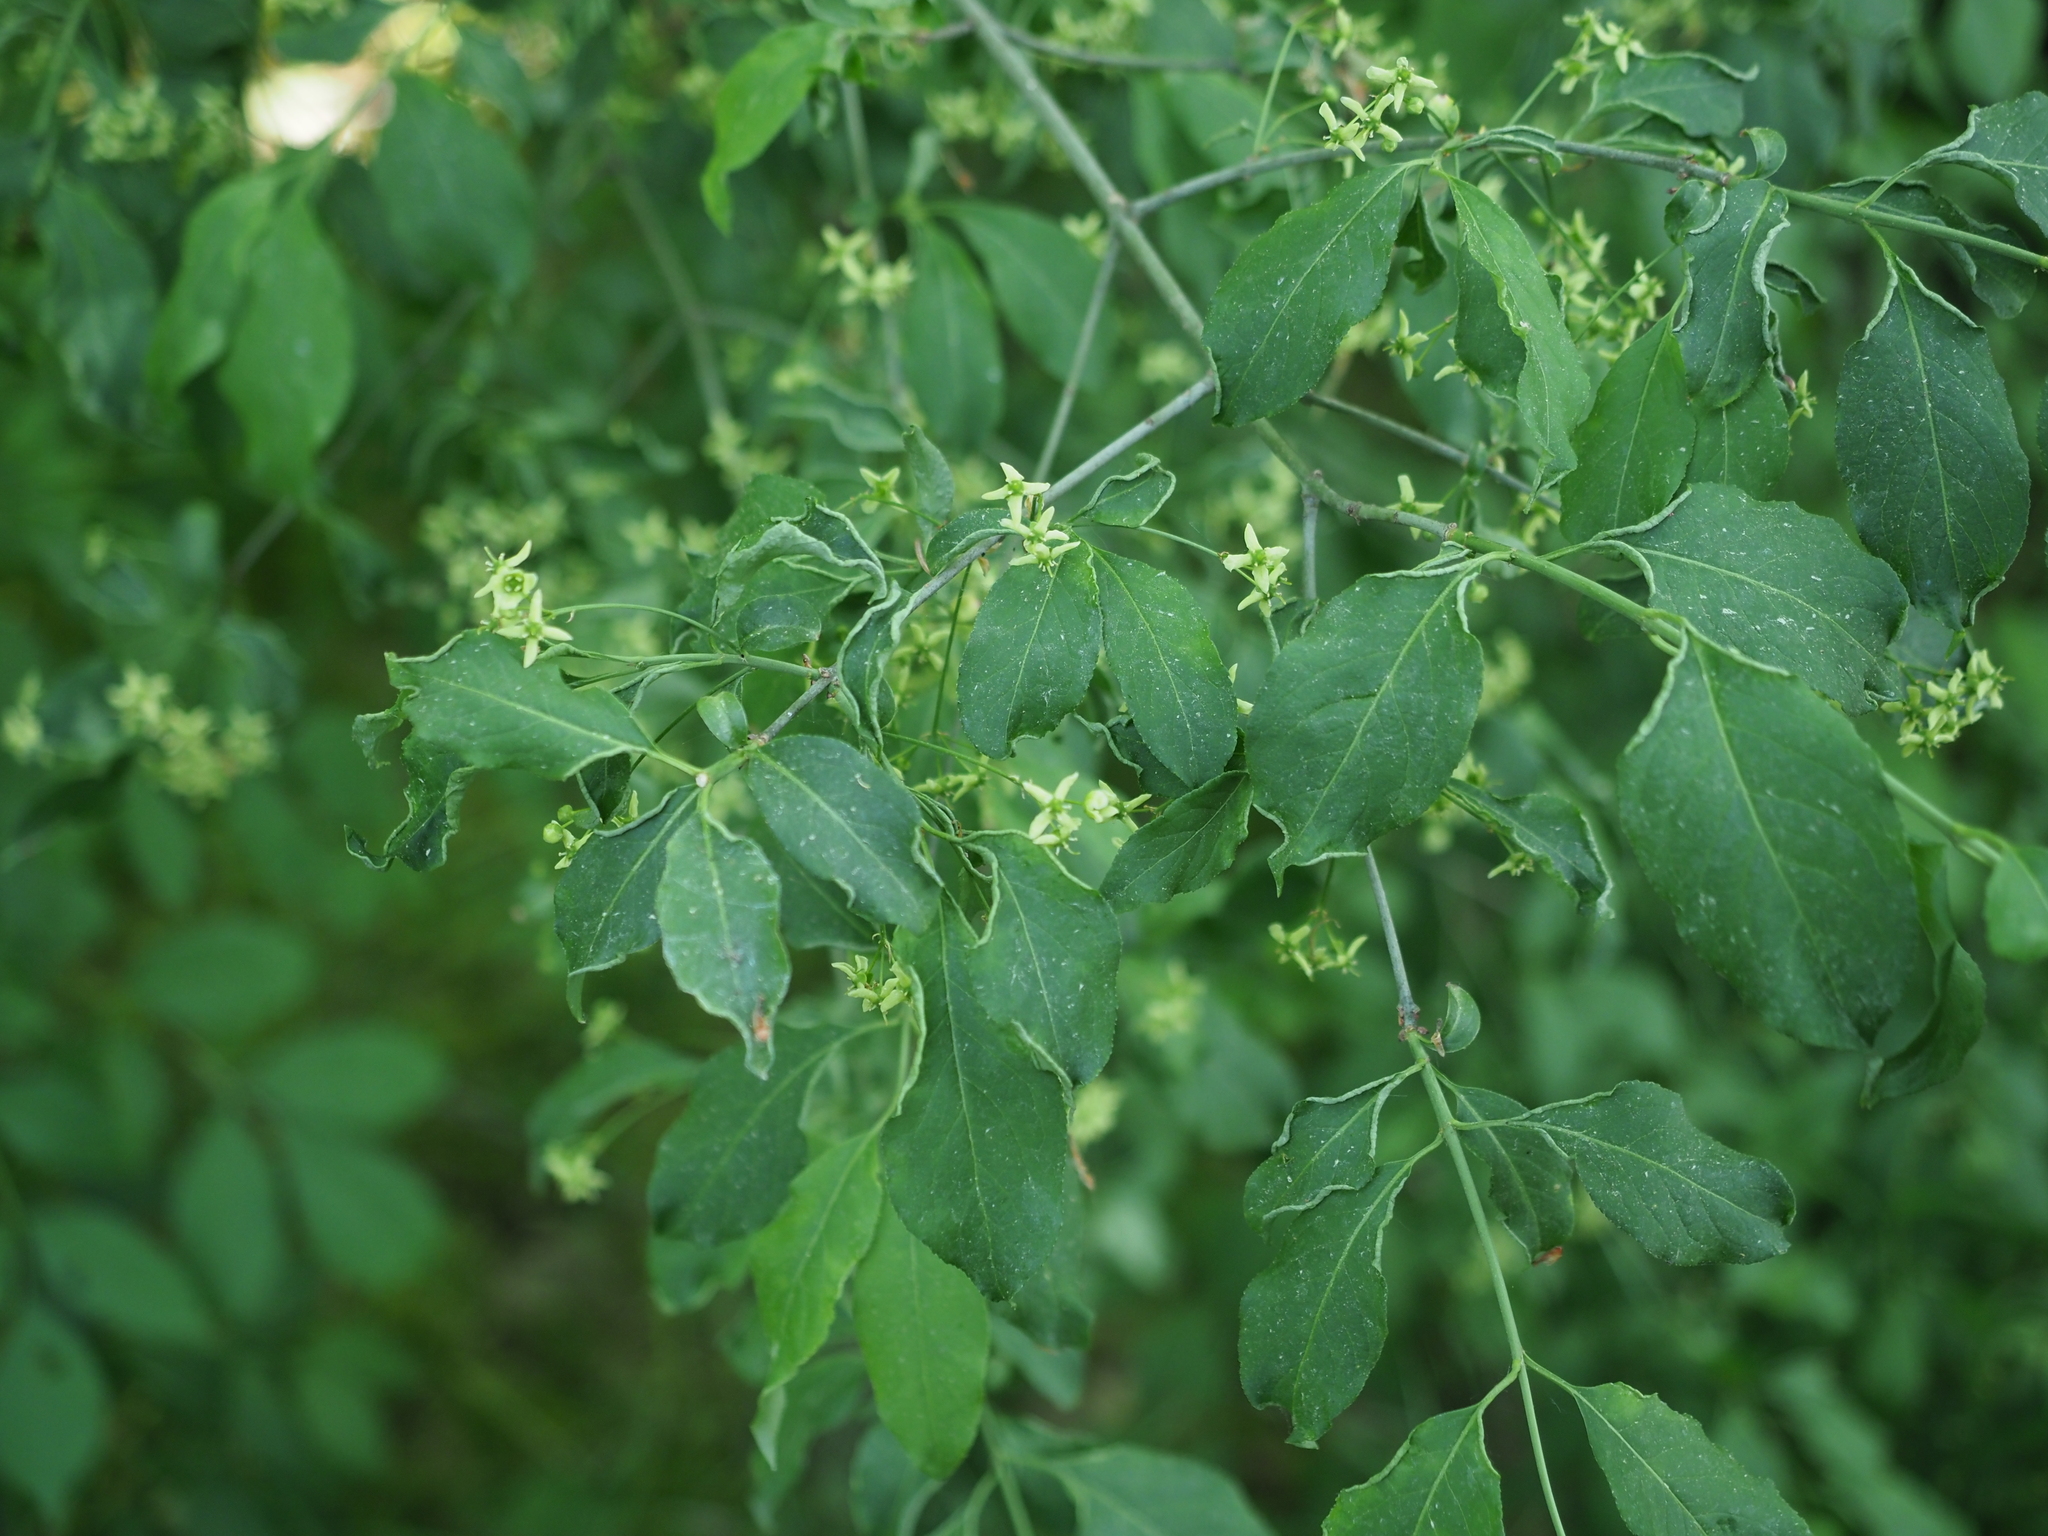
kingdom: Plantae
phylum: Tracheophyta
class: Magnoliopsida
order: Celastrales
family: Celastraceae
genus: Euonymus
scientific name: Euonymus europaeus
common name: Spindle
